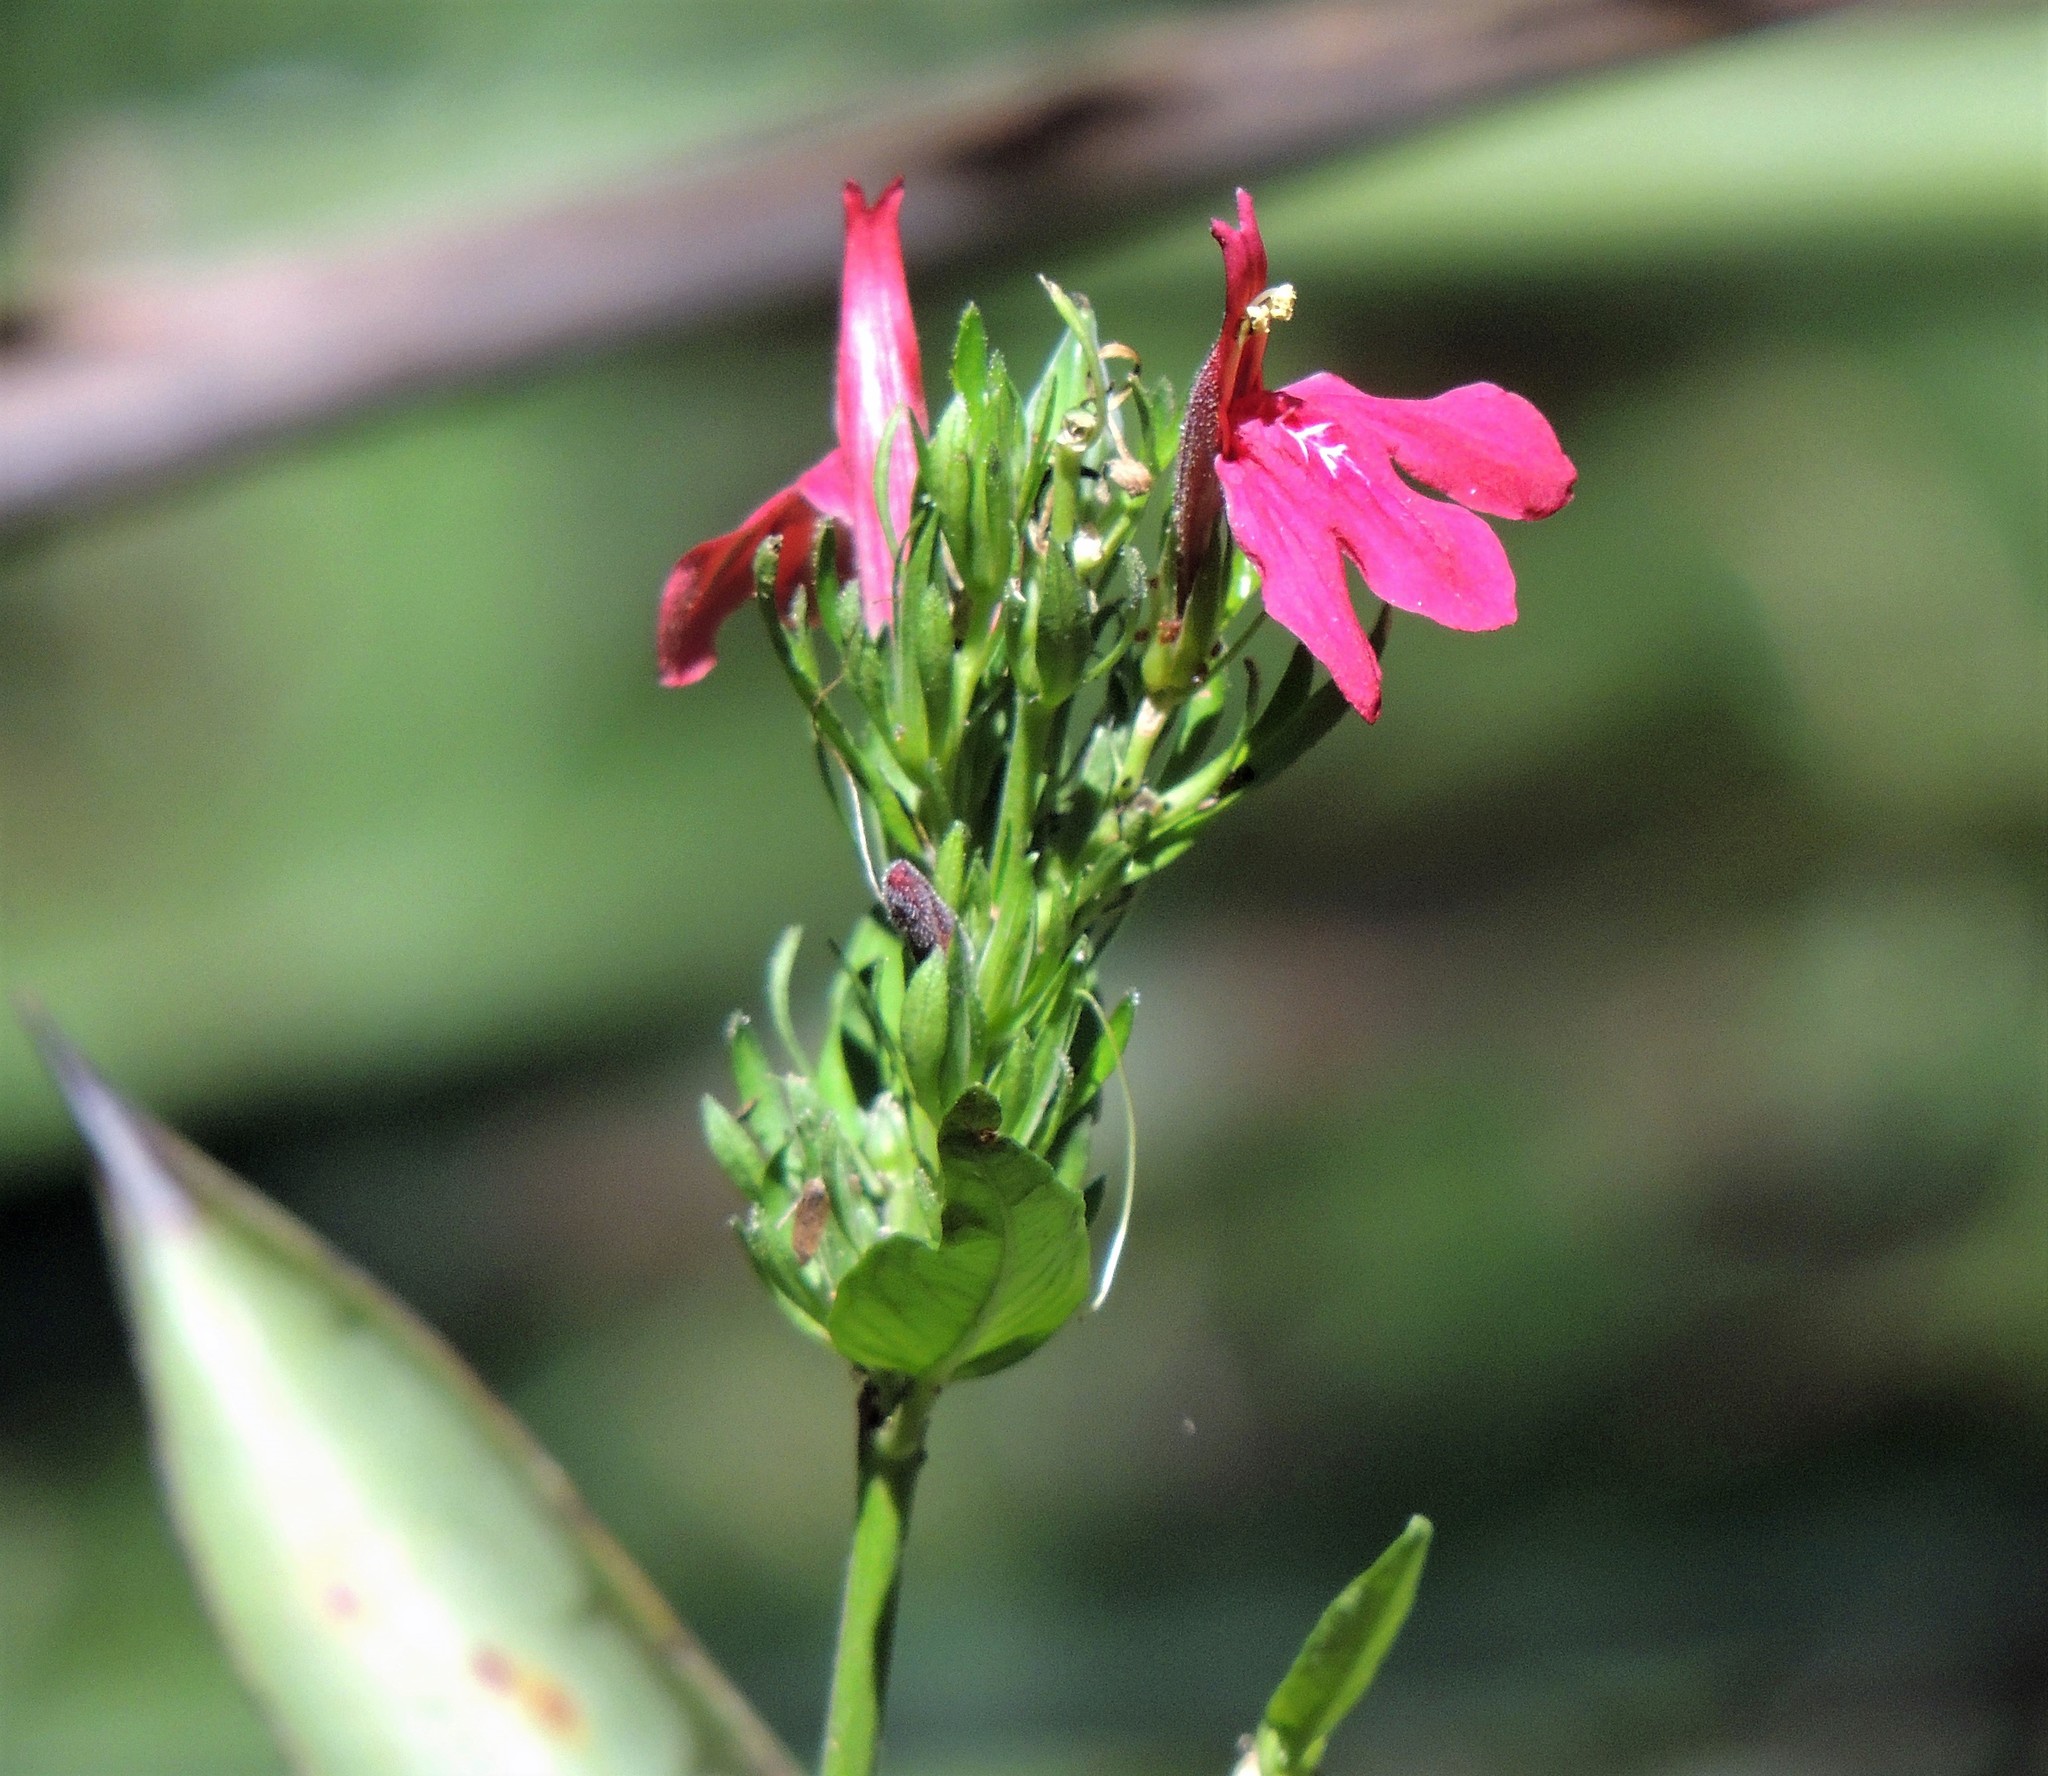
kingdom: Plantae
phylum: Tracheophyta
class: Magnoliopsida
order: Lamiales
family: Acanthaceae
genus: Justicia
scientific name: Justicia dumetorum
